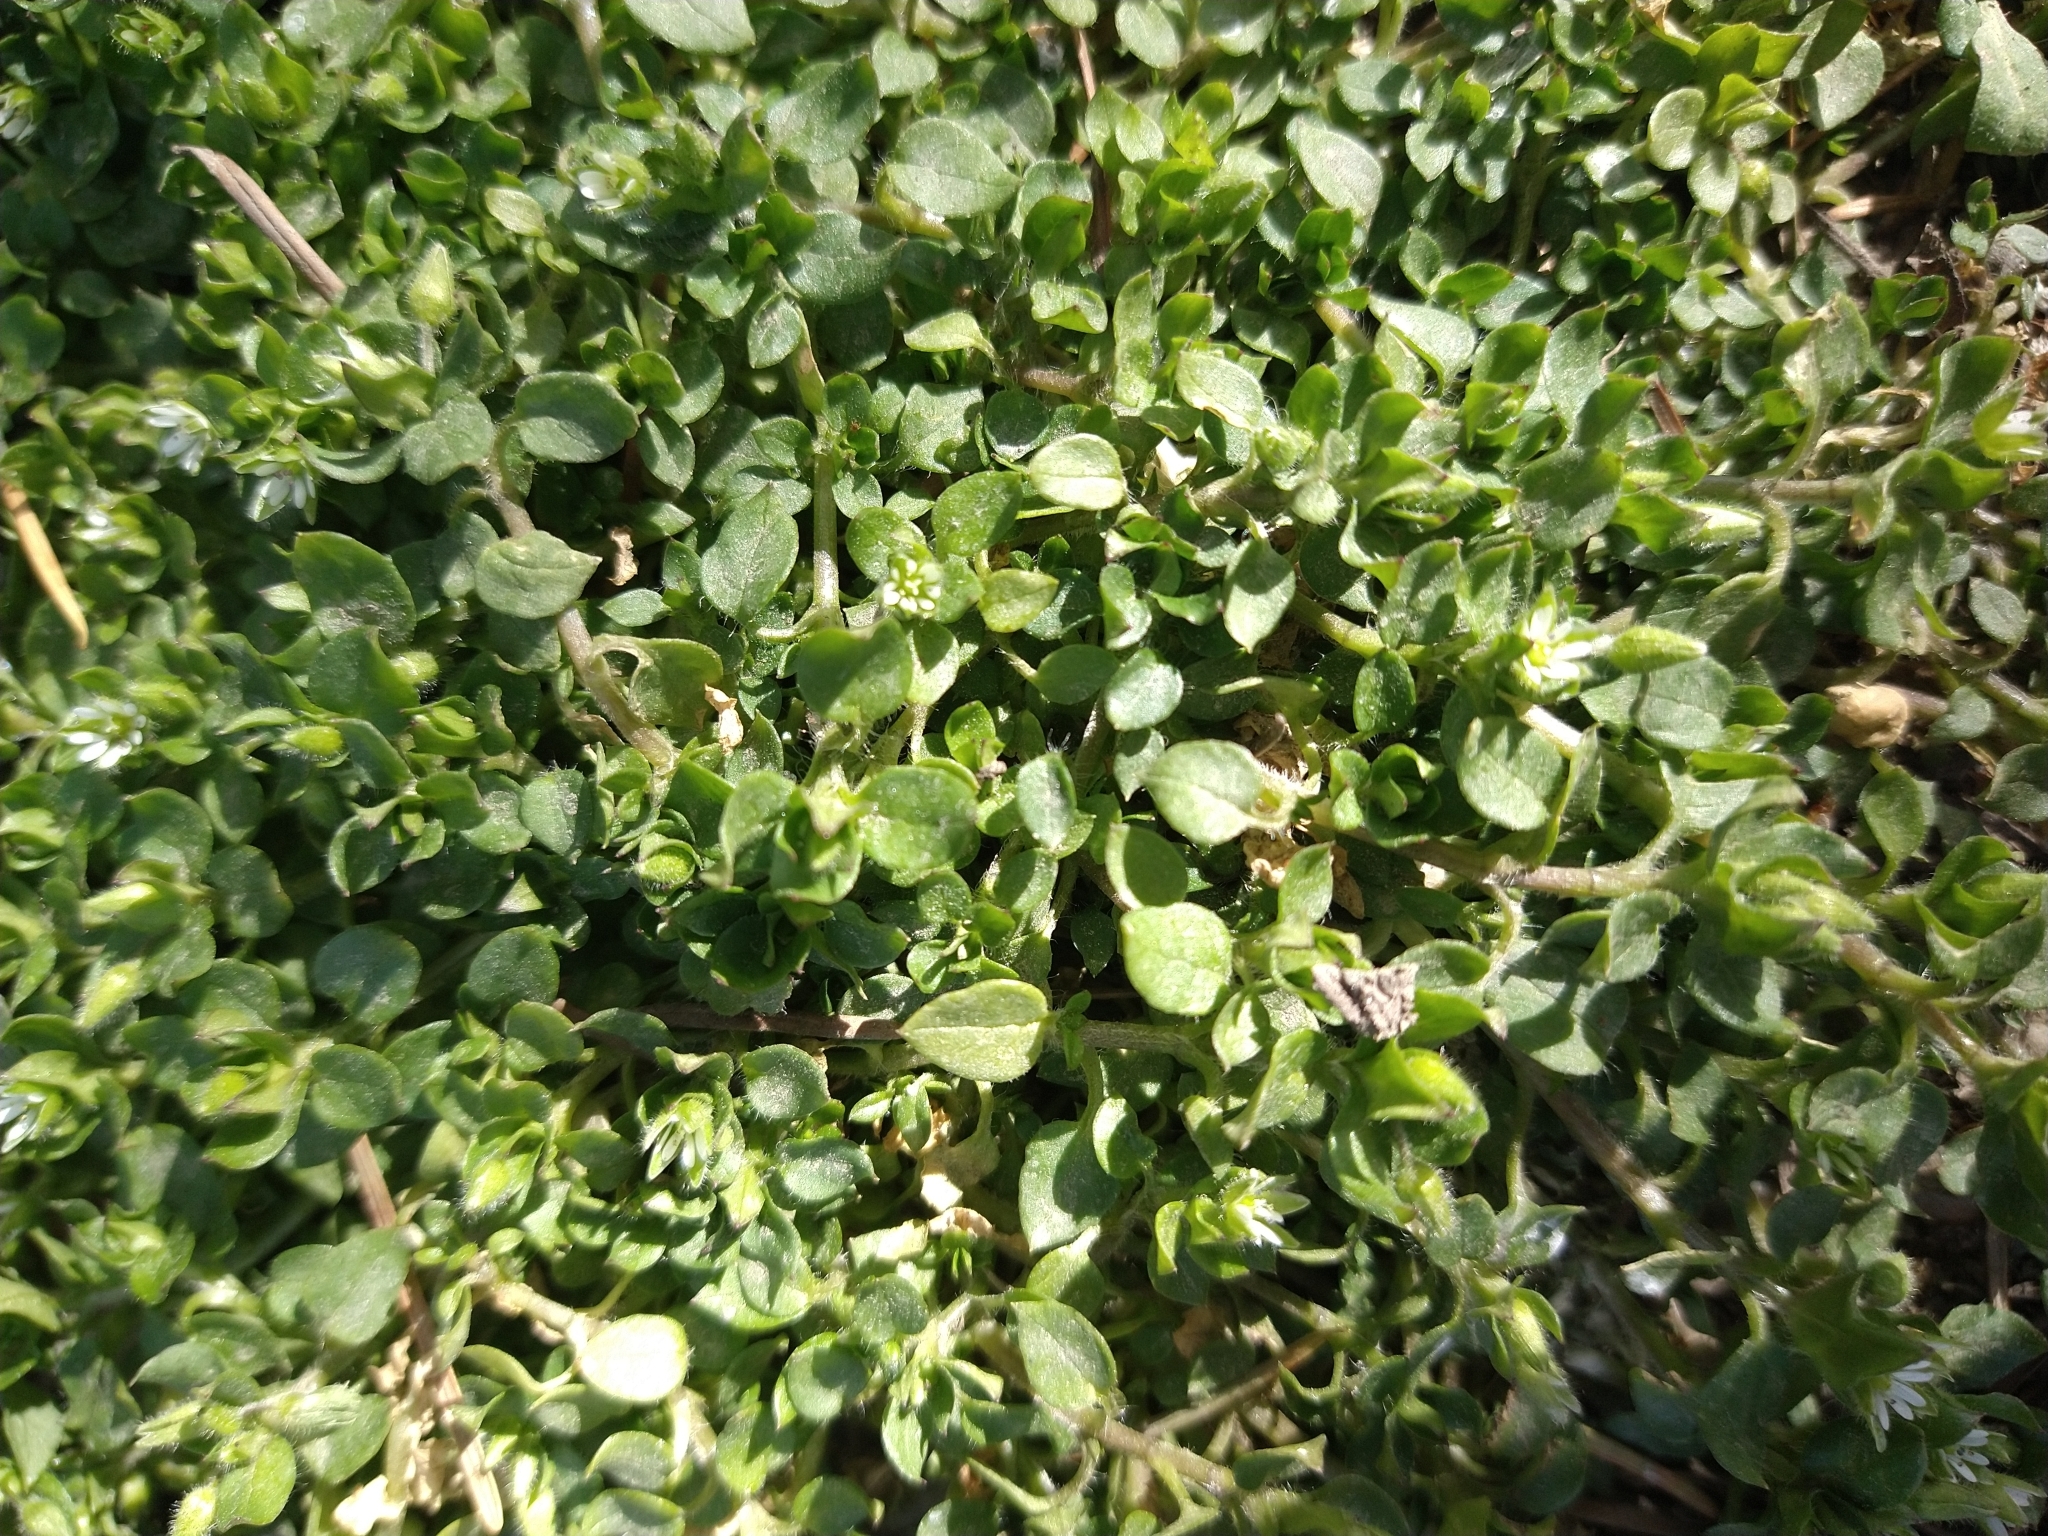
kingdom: Plantae
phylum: Tracheophyta
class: Magnoliopsida
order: Caryophyllales
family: Caryophyllaceae
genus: Stellaria
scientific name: Stellaria media
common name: Common chickweed
